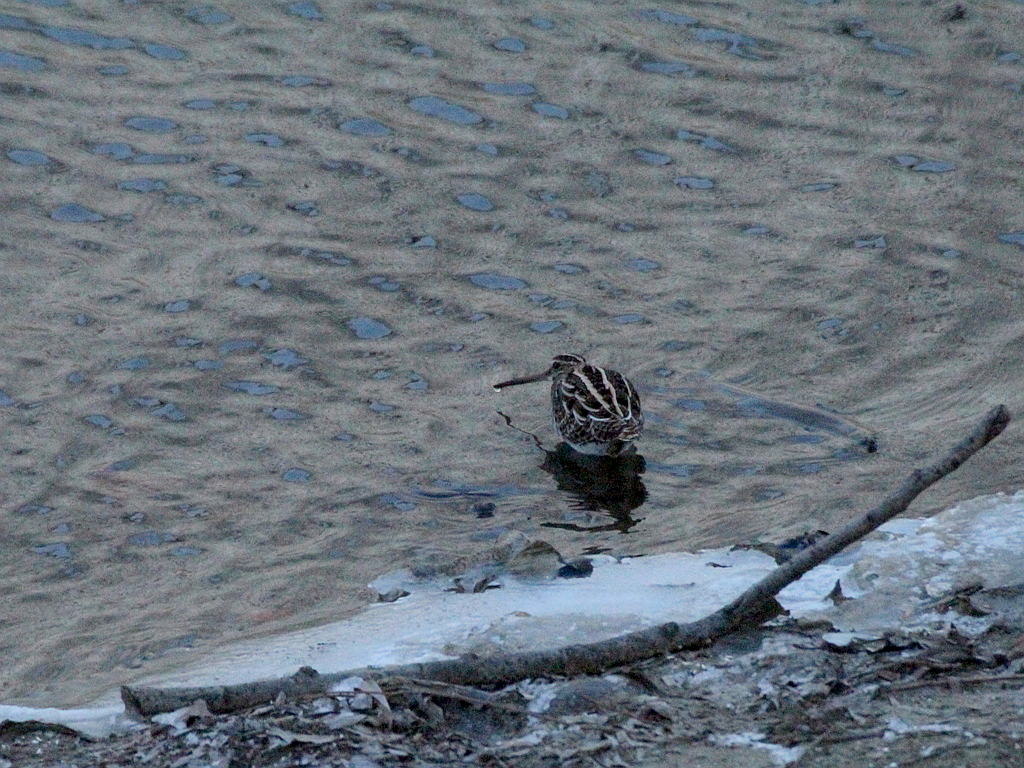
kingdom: Animalia
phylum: Chordata
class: Aves
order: Charadriiformes
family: Scolopacidae
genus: Gallinago
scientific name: Gallinago gallinago
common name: Common snipe
